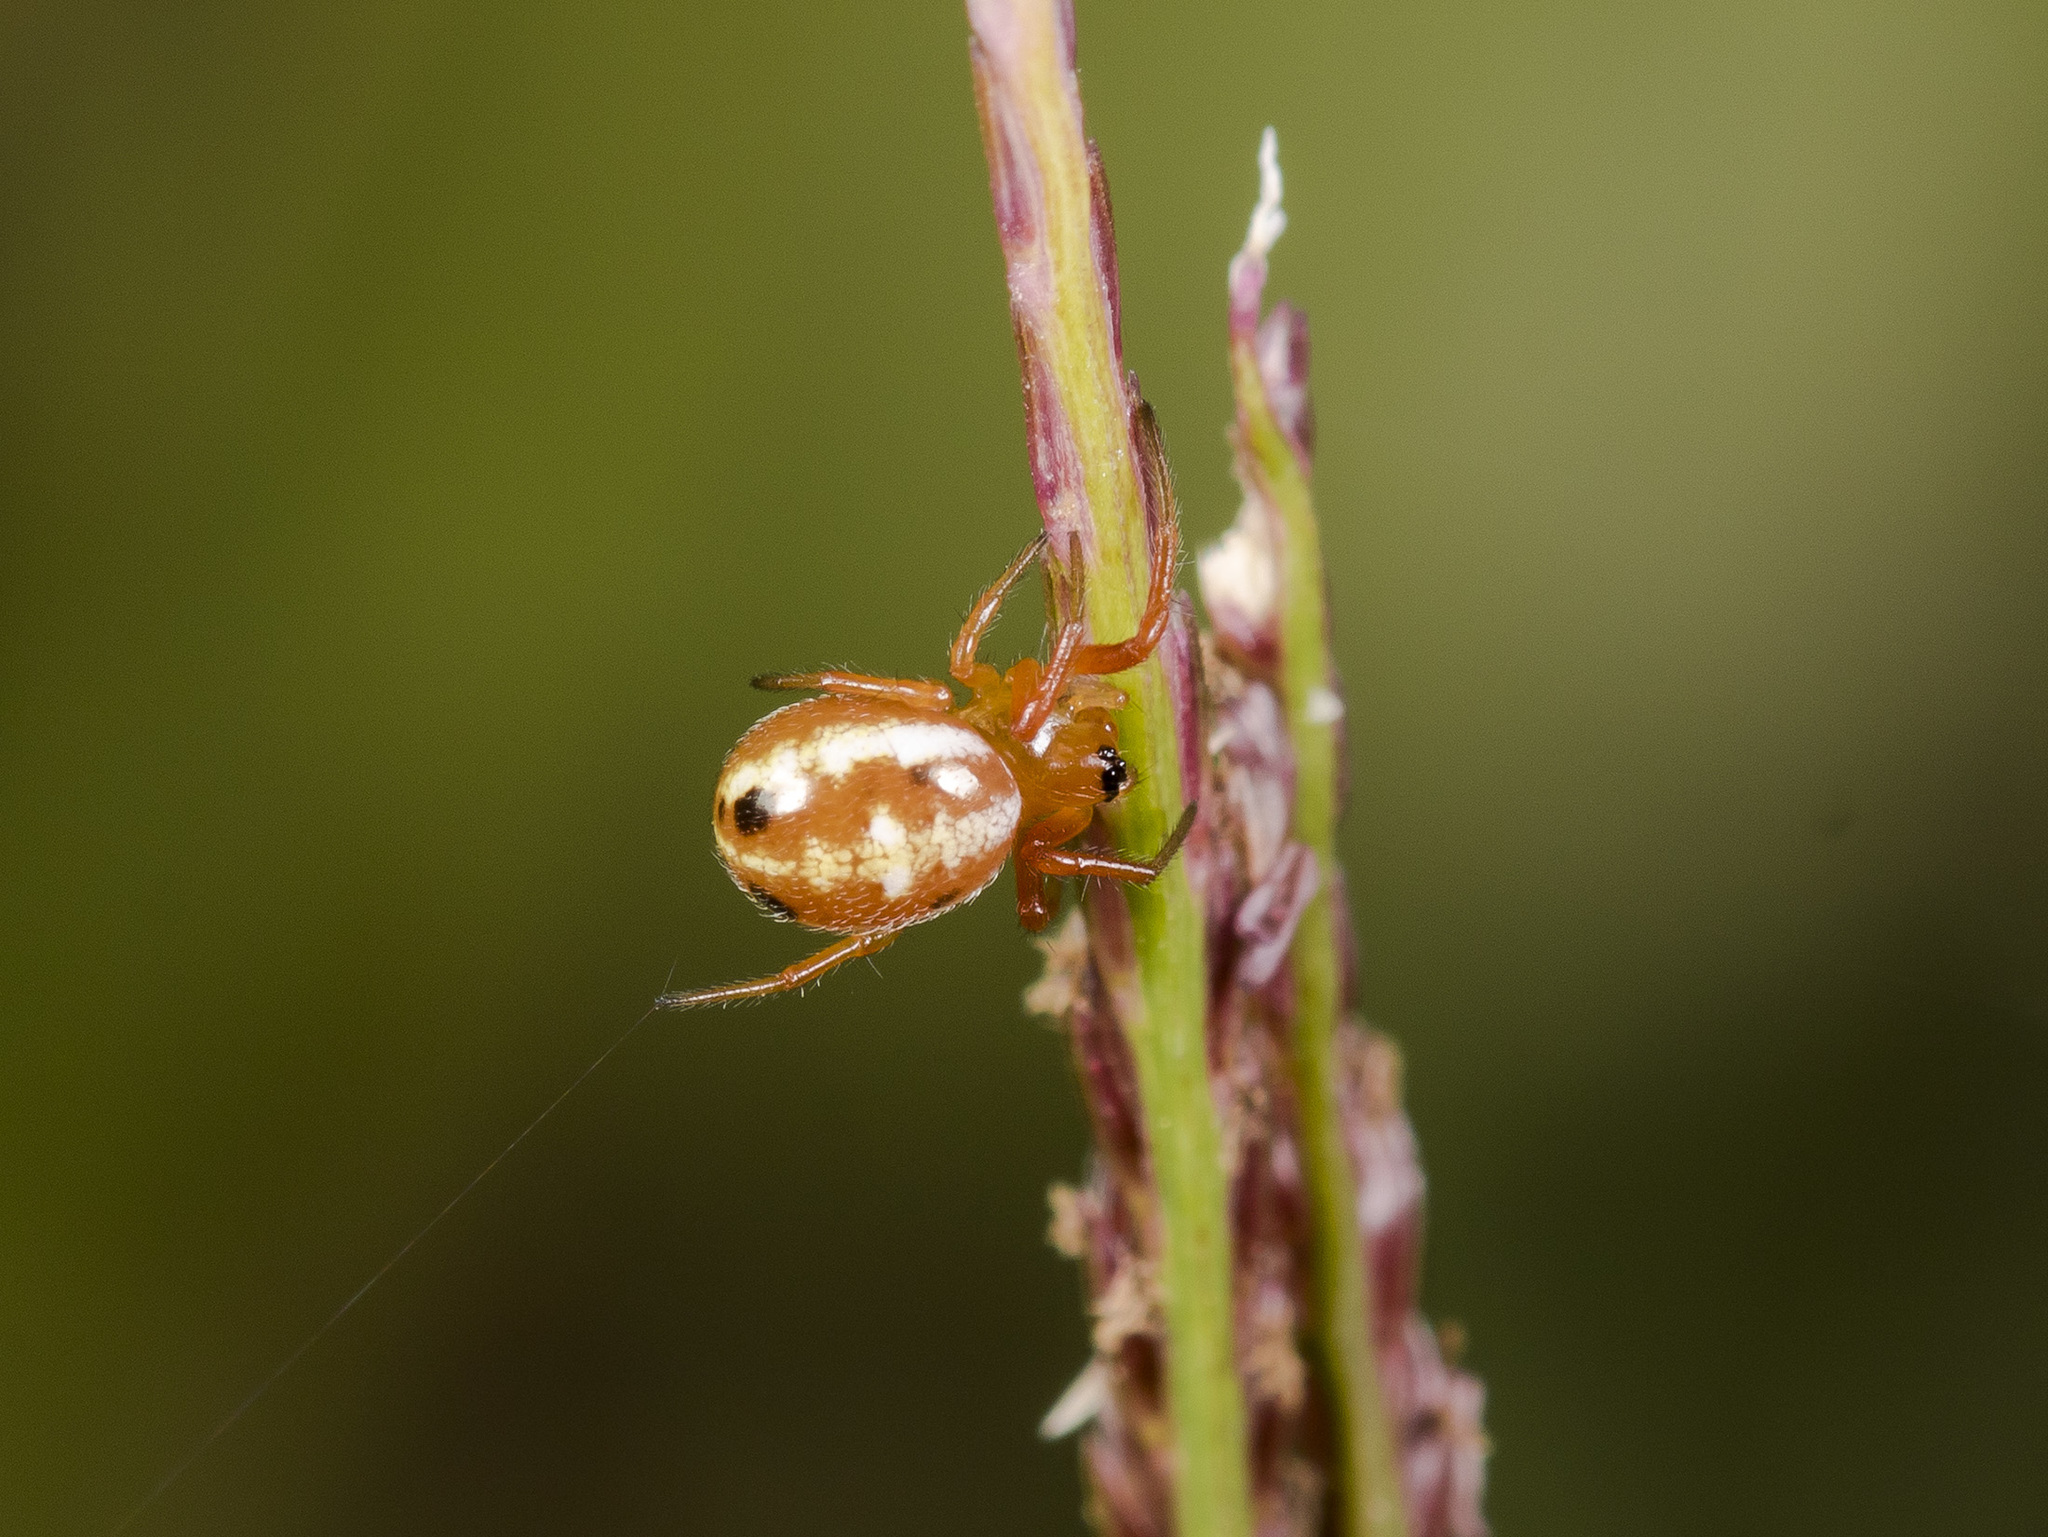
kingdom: Animalia
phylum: Arthropoda
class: Arachnida
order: Araneae
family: Araneidae
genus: Hypsosinga
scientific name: Hypsosinga sanguinea
